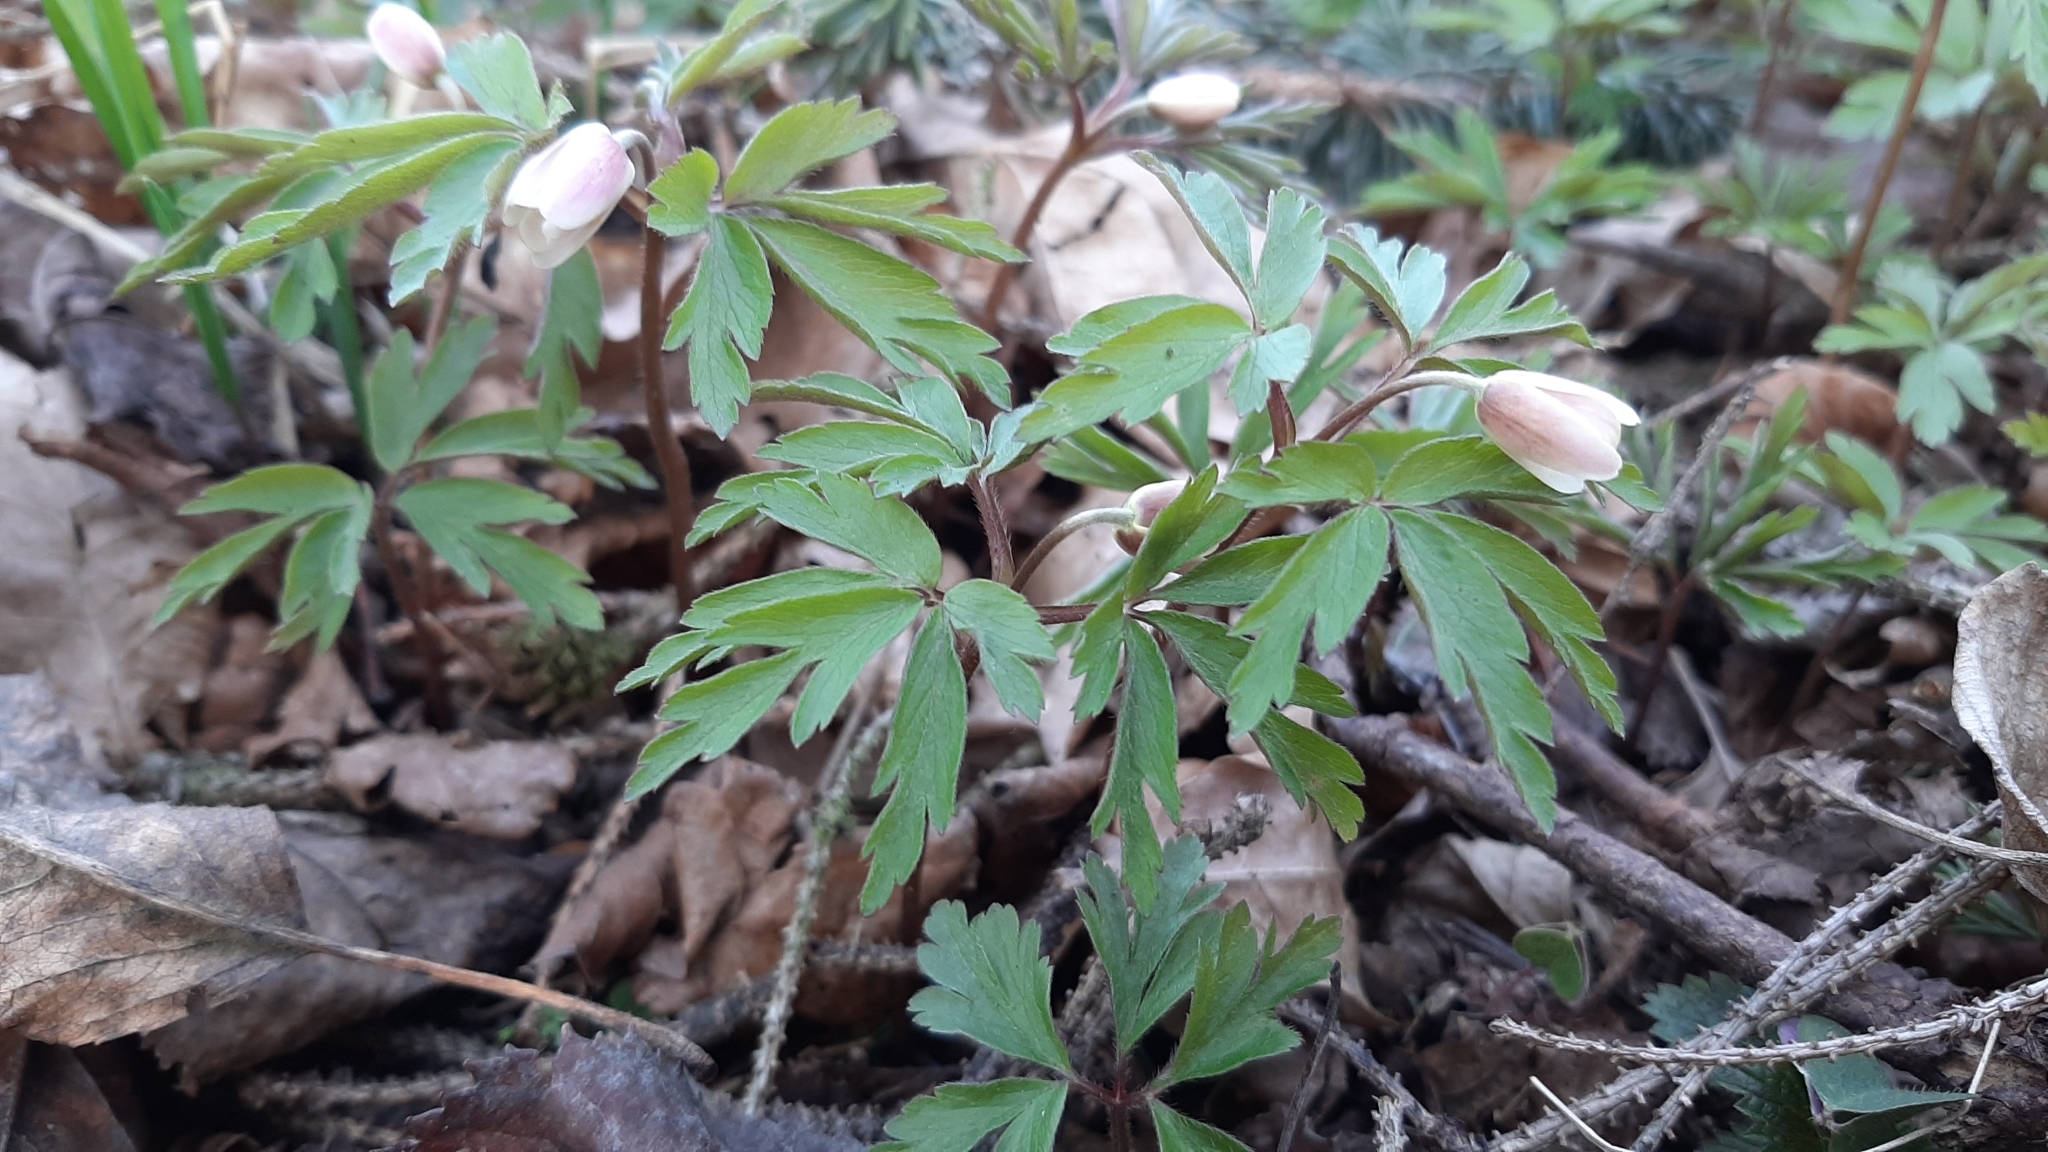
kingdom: Plantae
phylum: Tracheophyta
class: Magnoliopsida
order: Ranunculales
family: Ranunculaceae
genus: Anemone
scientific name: Anemone nemorosa
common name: Wood anemone
